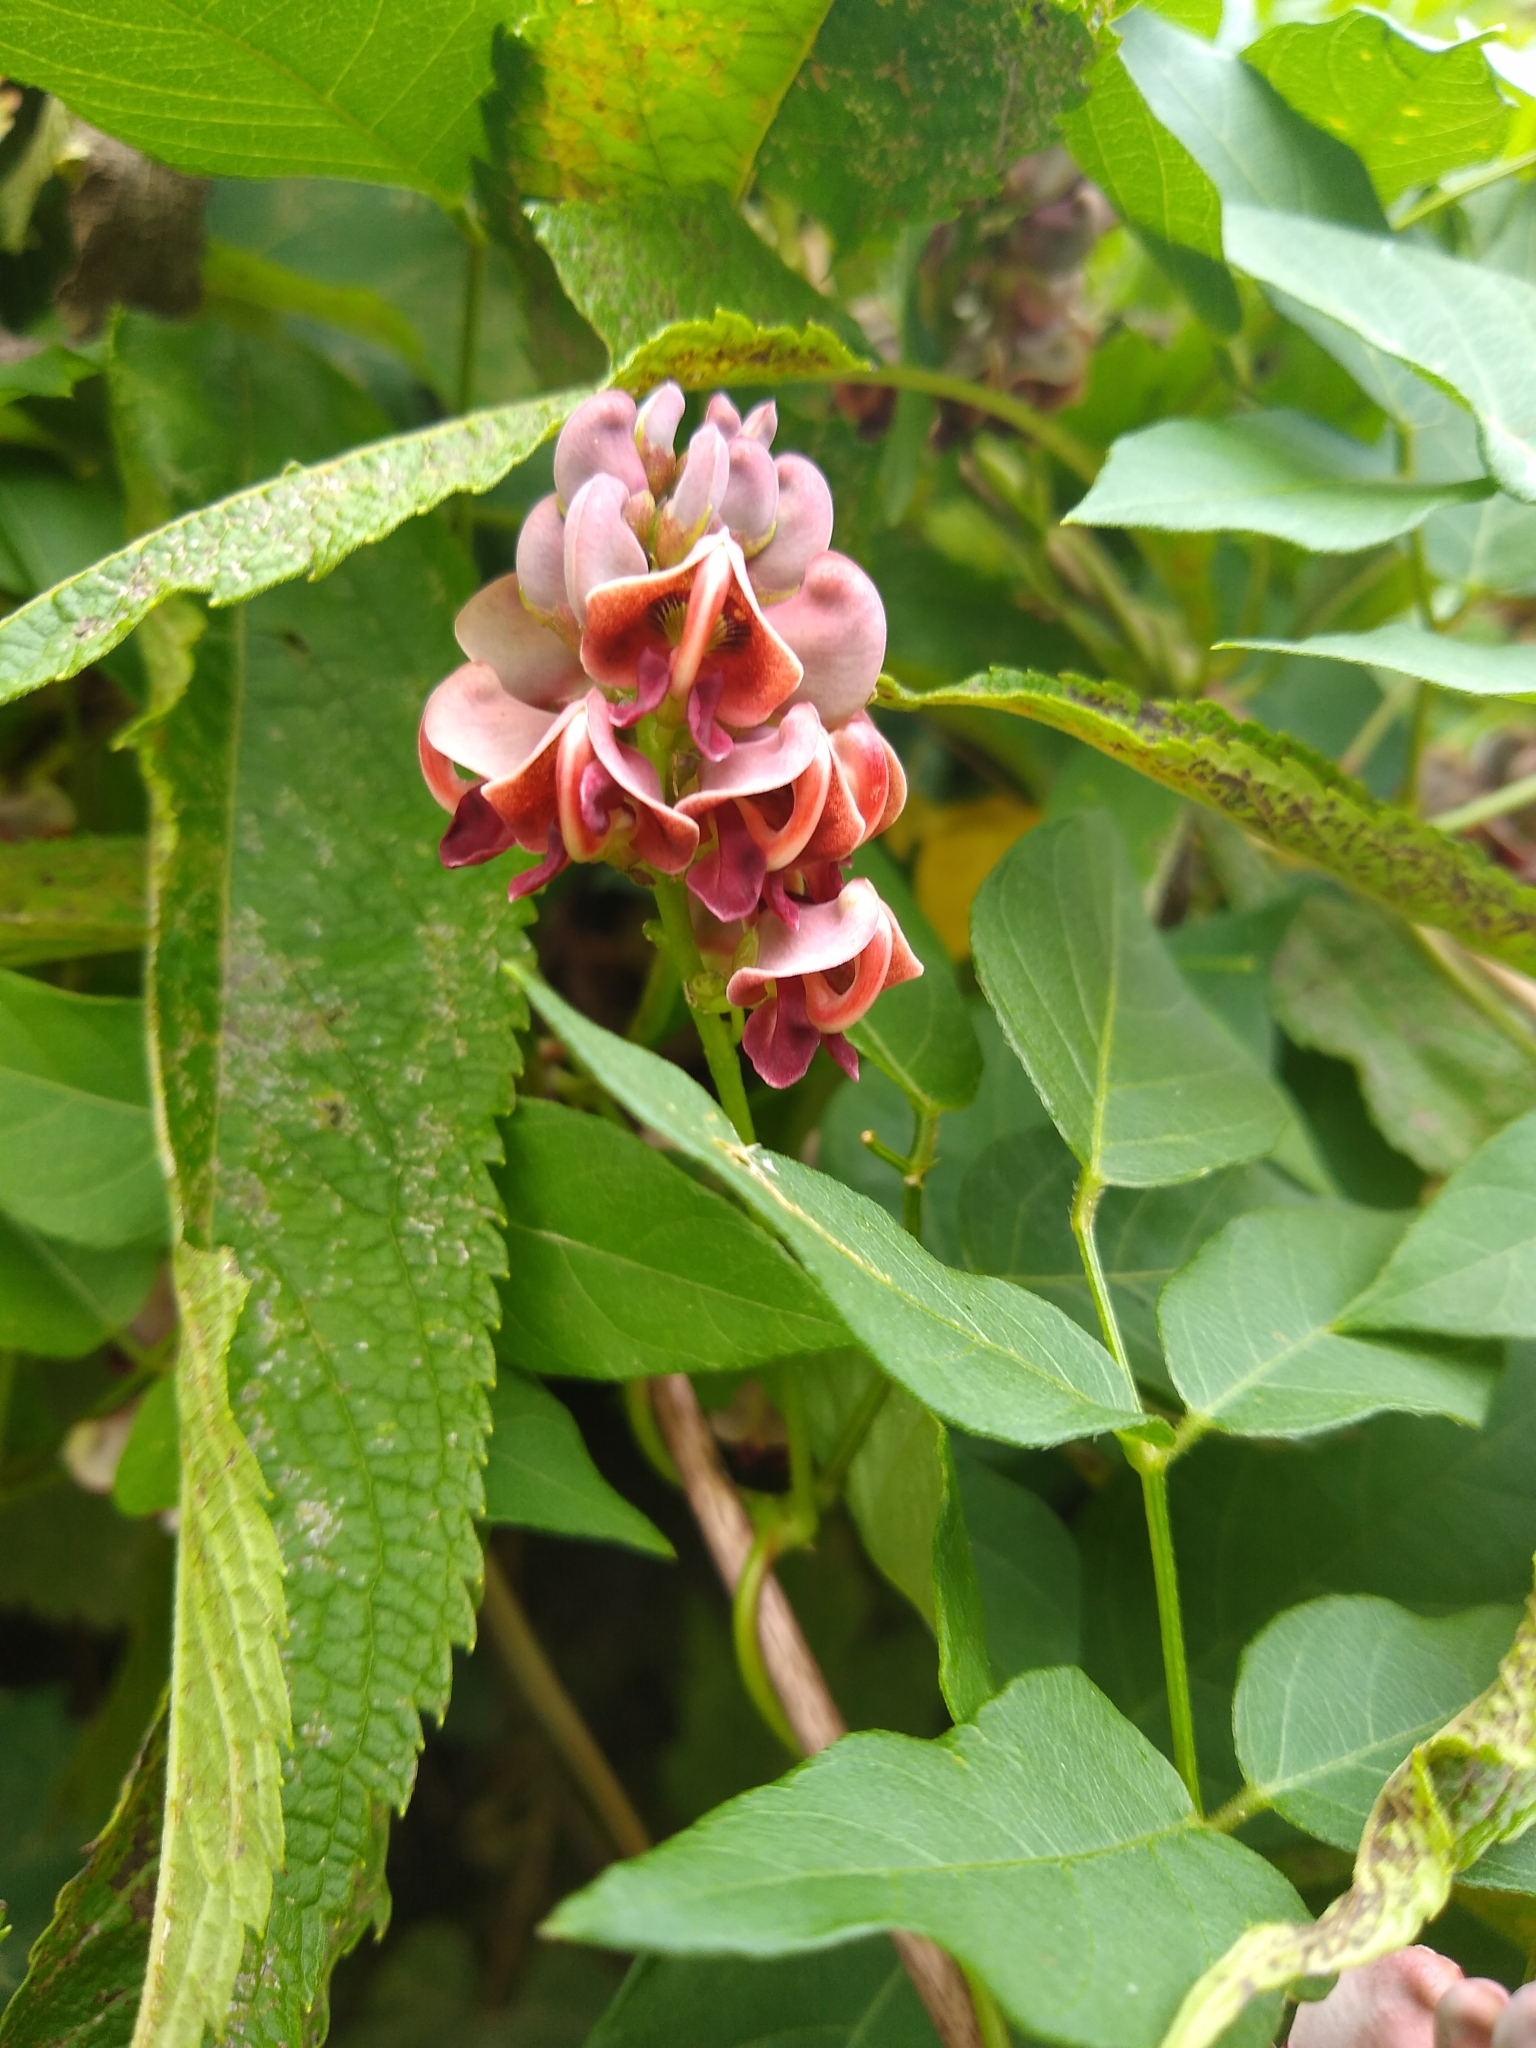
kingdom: Plantae
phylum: Tracheophyta
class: Magnoliopsida
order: Fabales
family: Fabaceae
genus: Apios
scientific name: Apios americana
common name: American potato-bean
